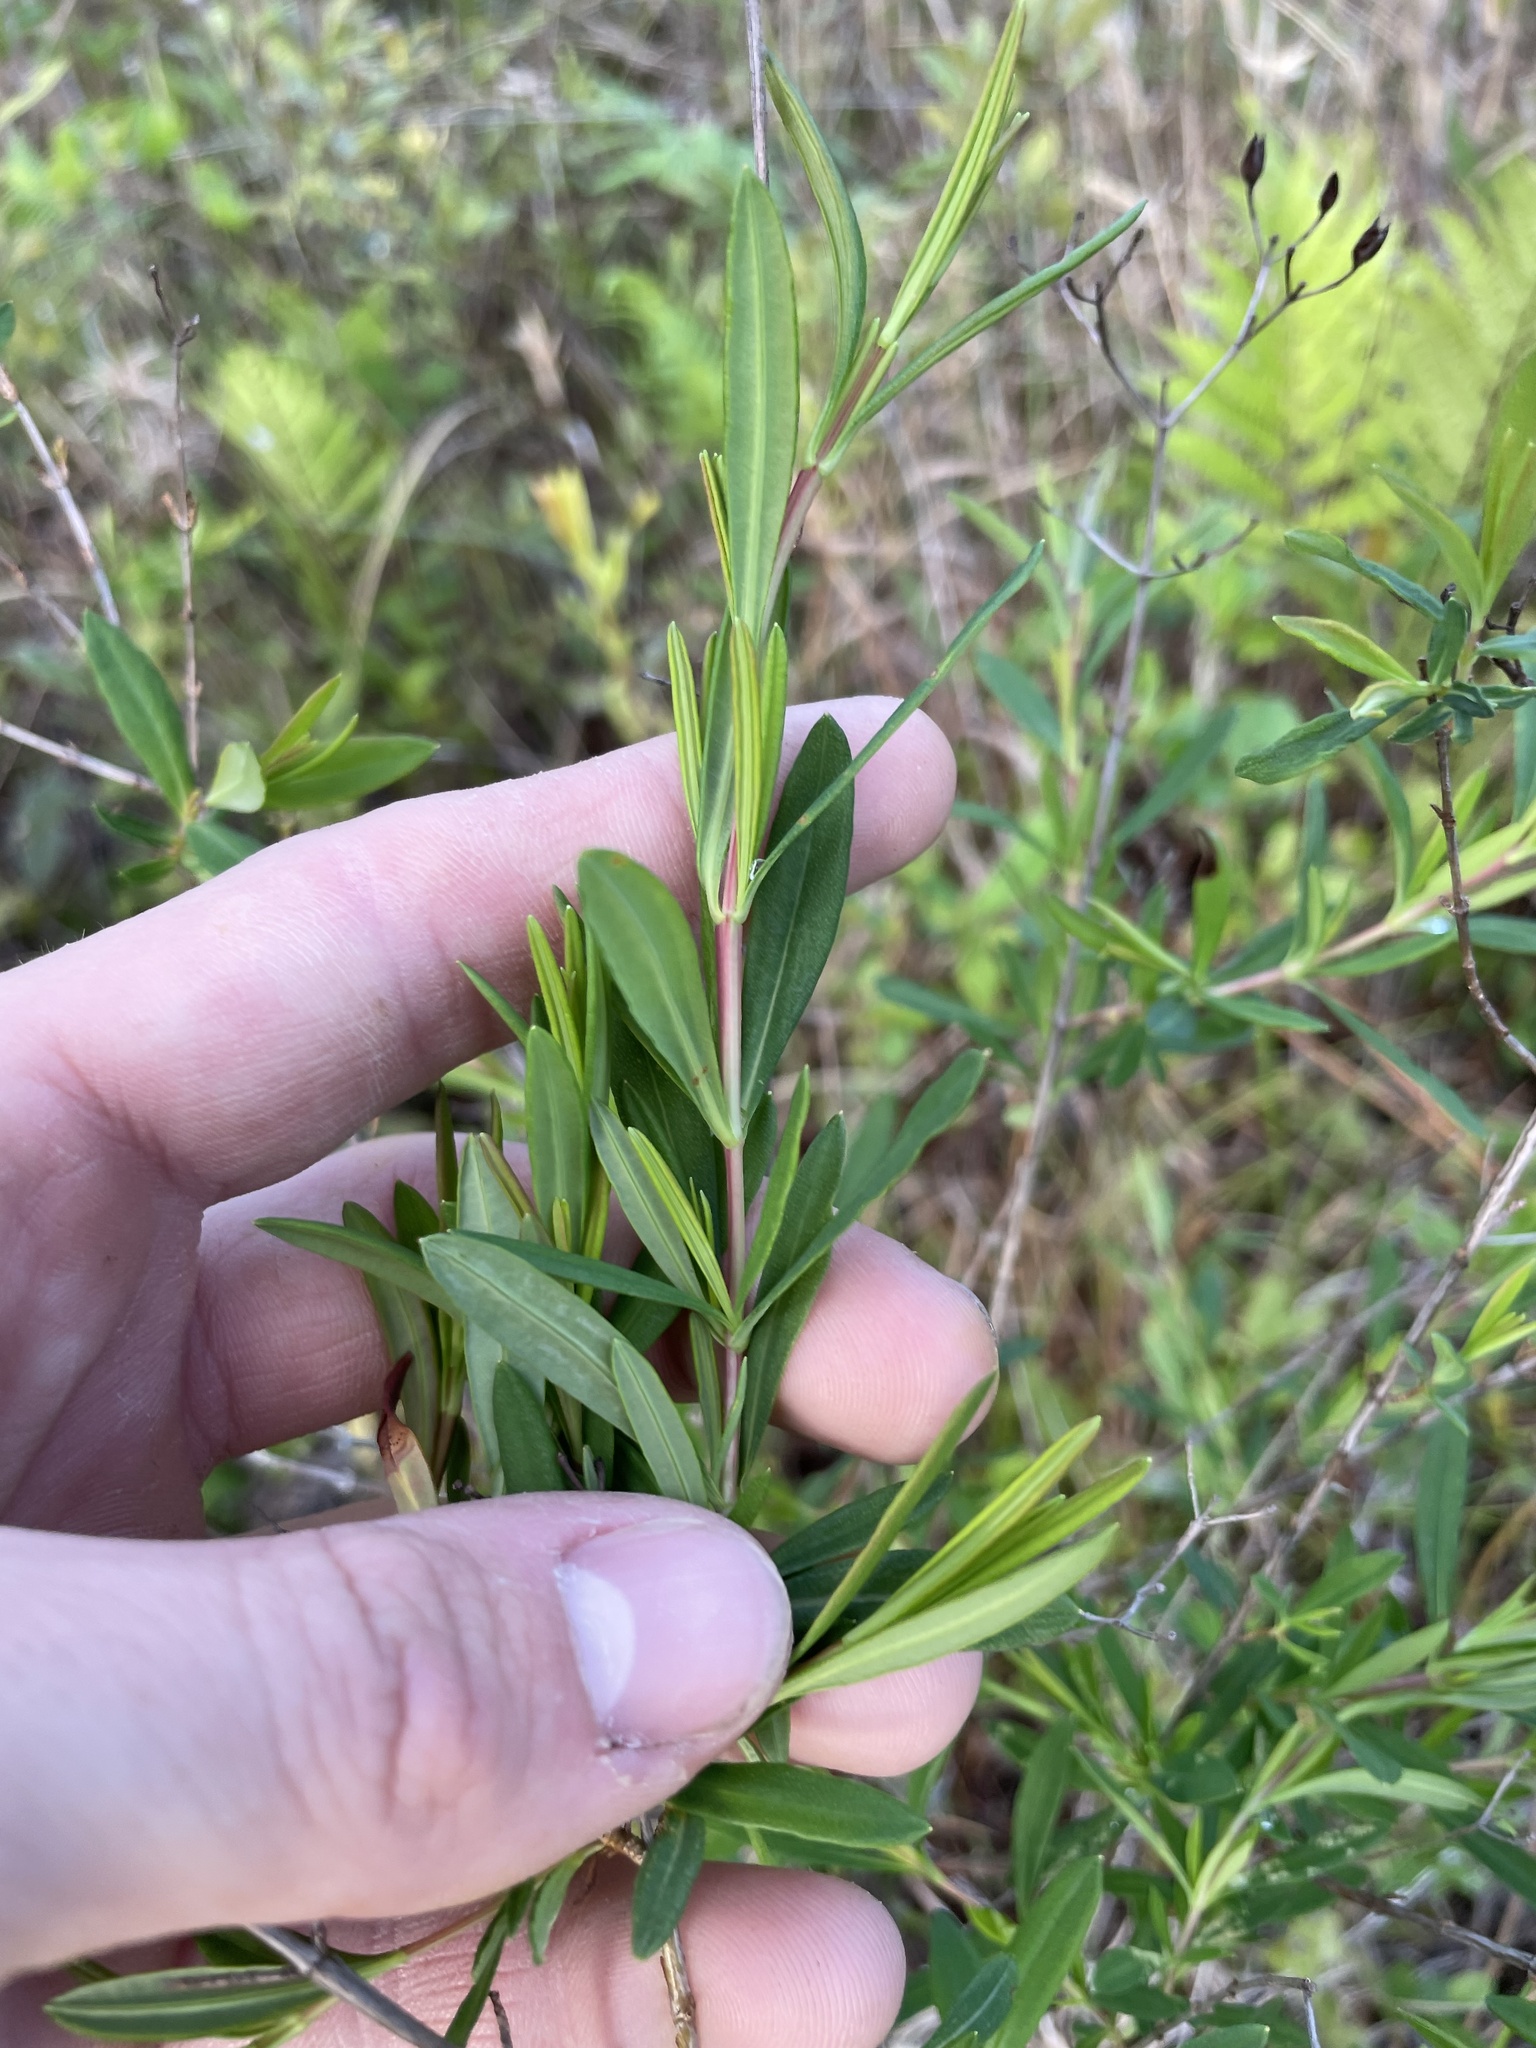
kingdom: Plantae
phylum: Tracheophyta
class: Magnoliopsida
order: Malpighiales
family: Hypericaceae
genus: Hypericum
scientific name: Hypericum densiflorum
